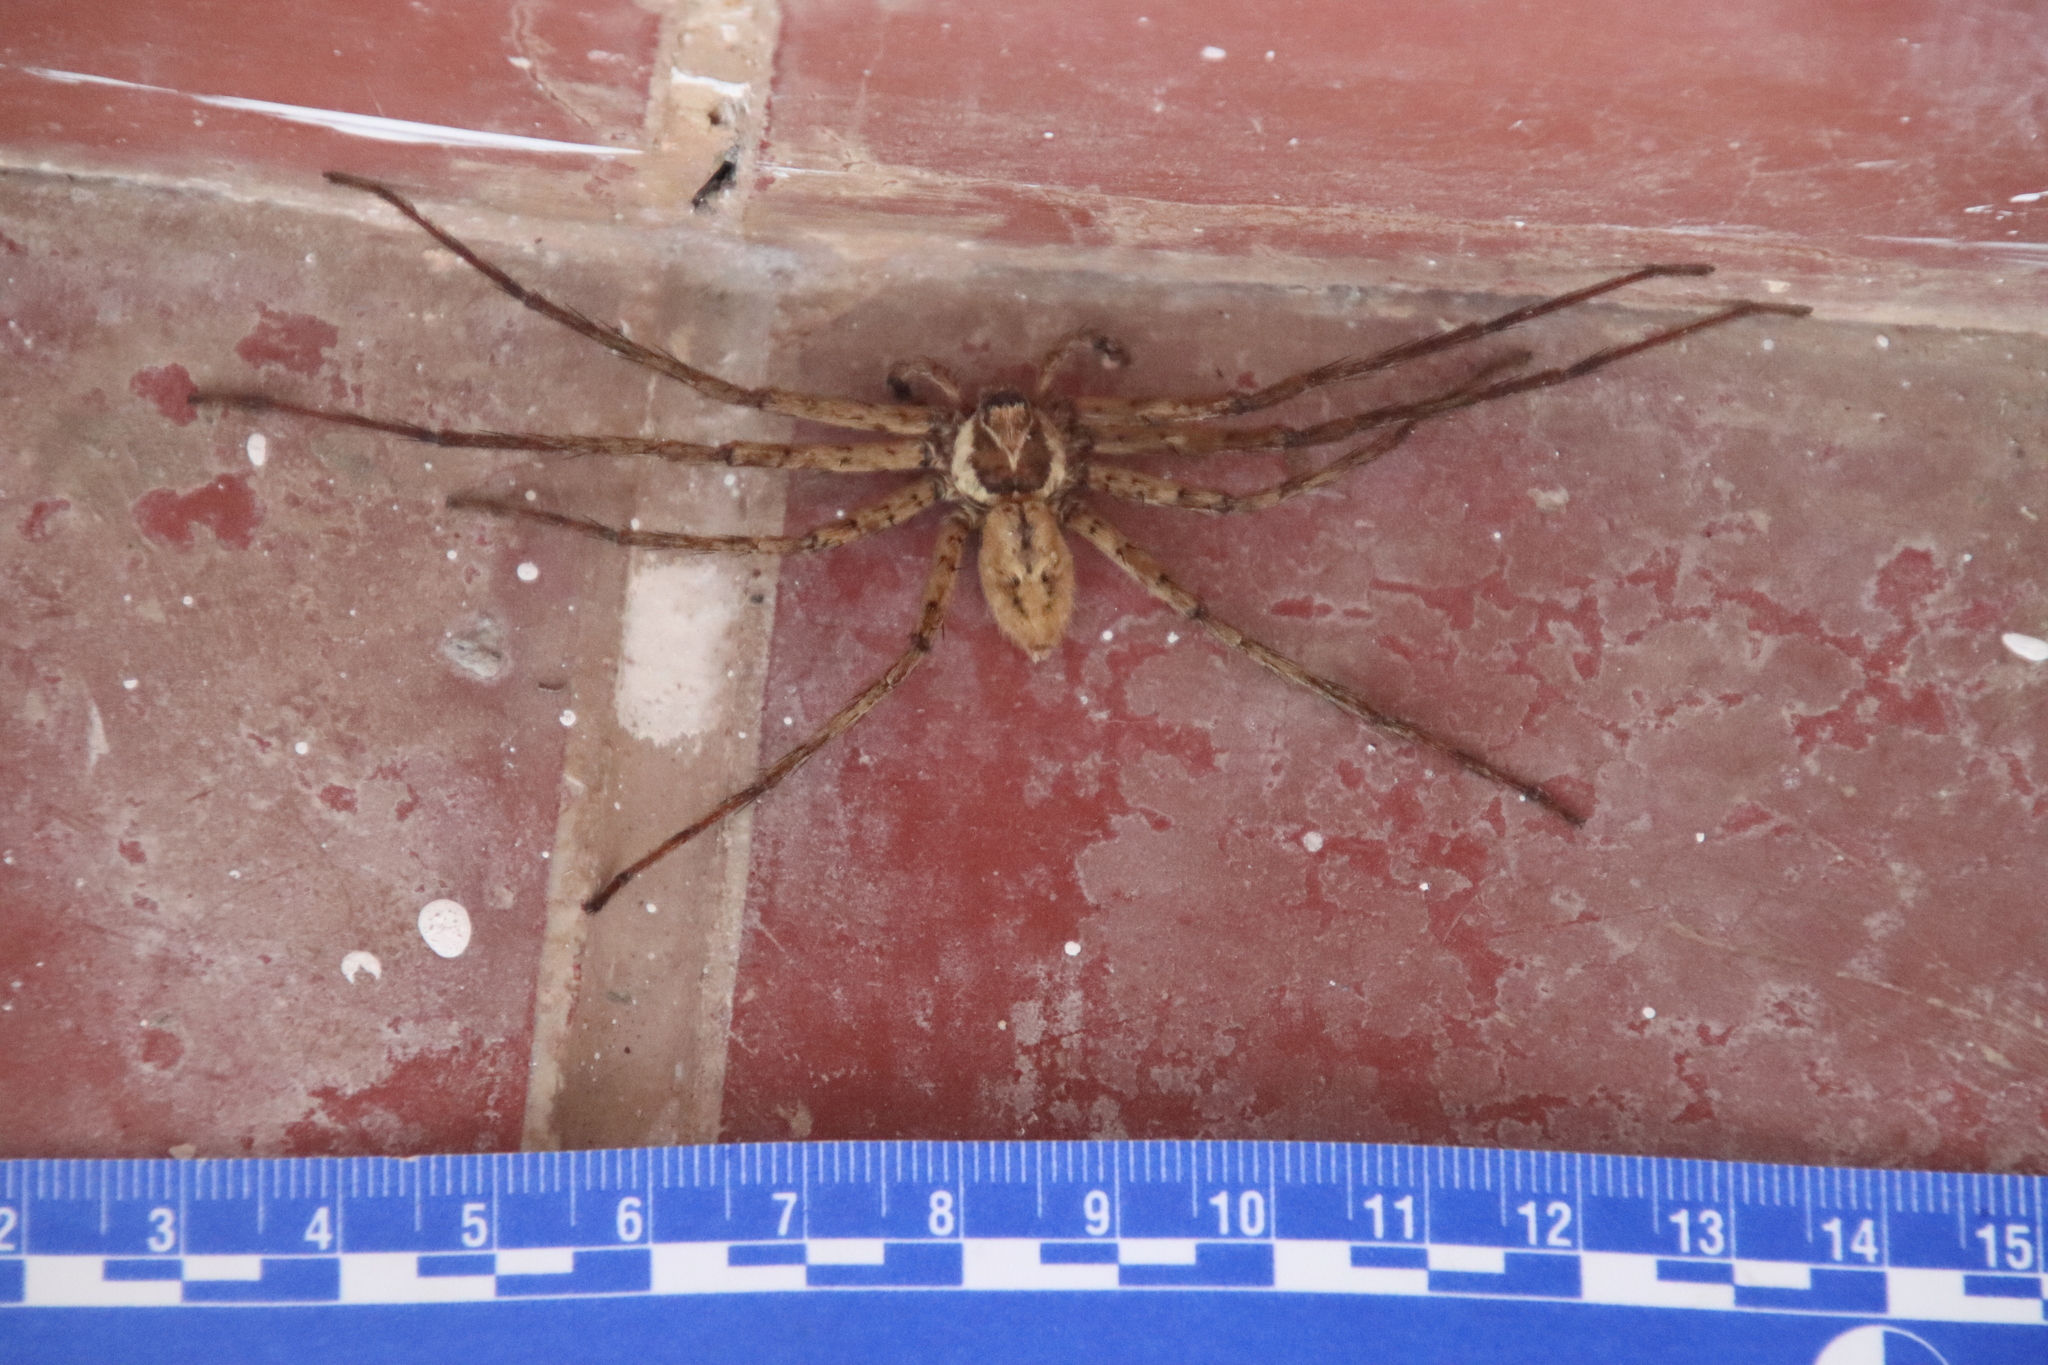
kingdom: Animalia
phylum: Arthropoda
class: Arachnida
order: Araneae
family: Sparassidae
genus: Heteropoda
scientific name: Heteropoda venatoria
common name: Huntsman spider
